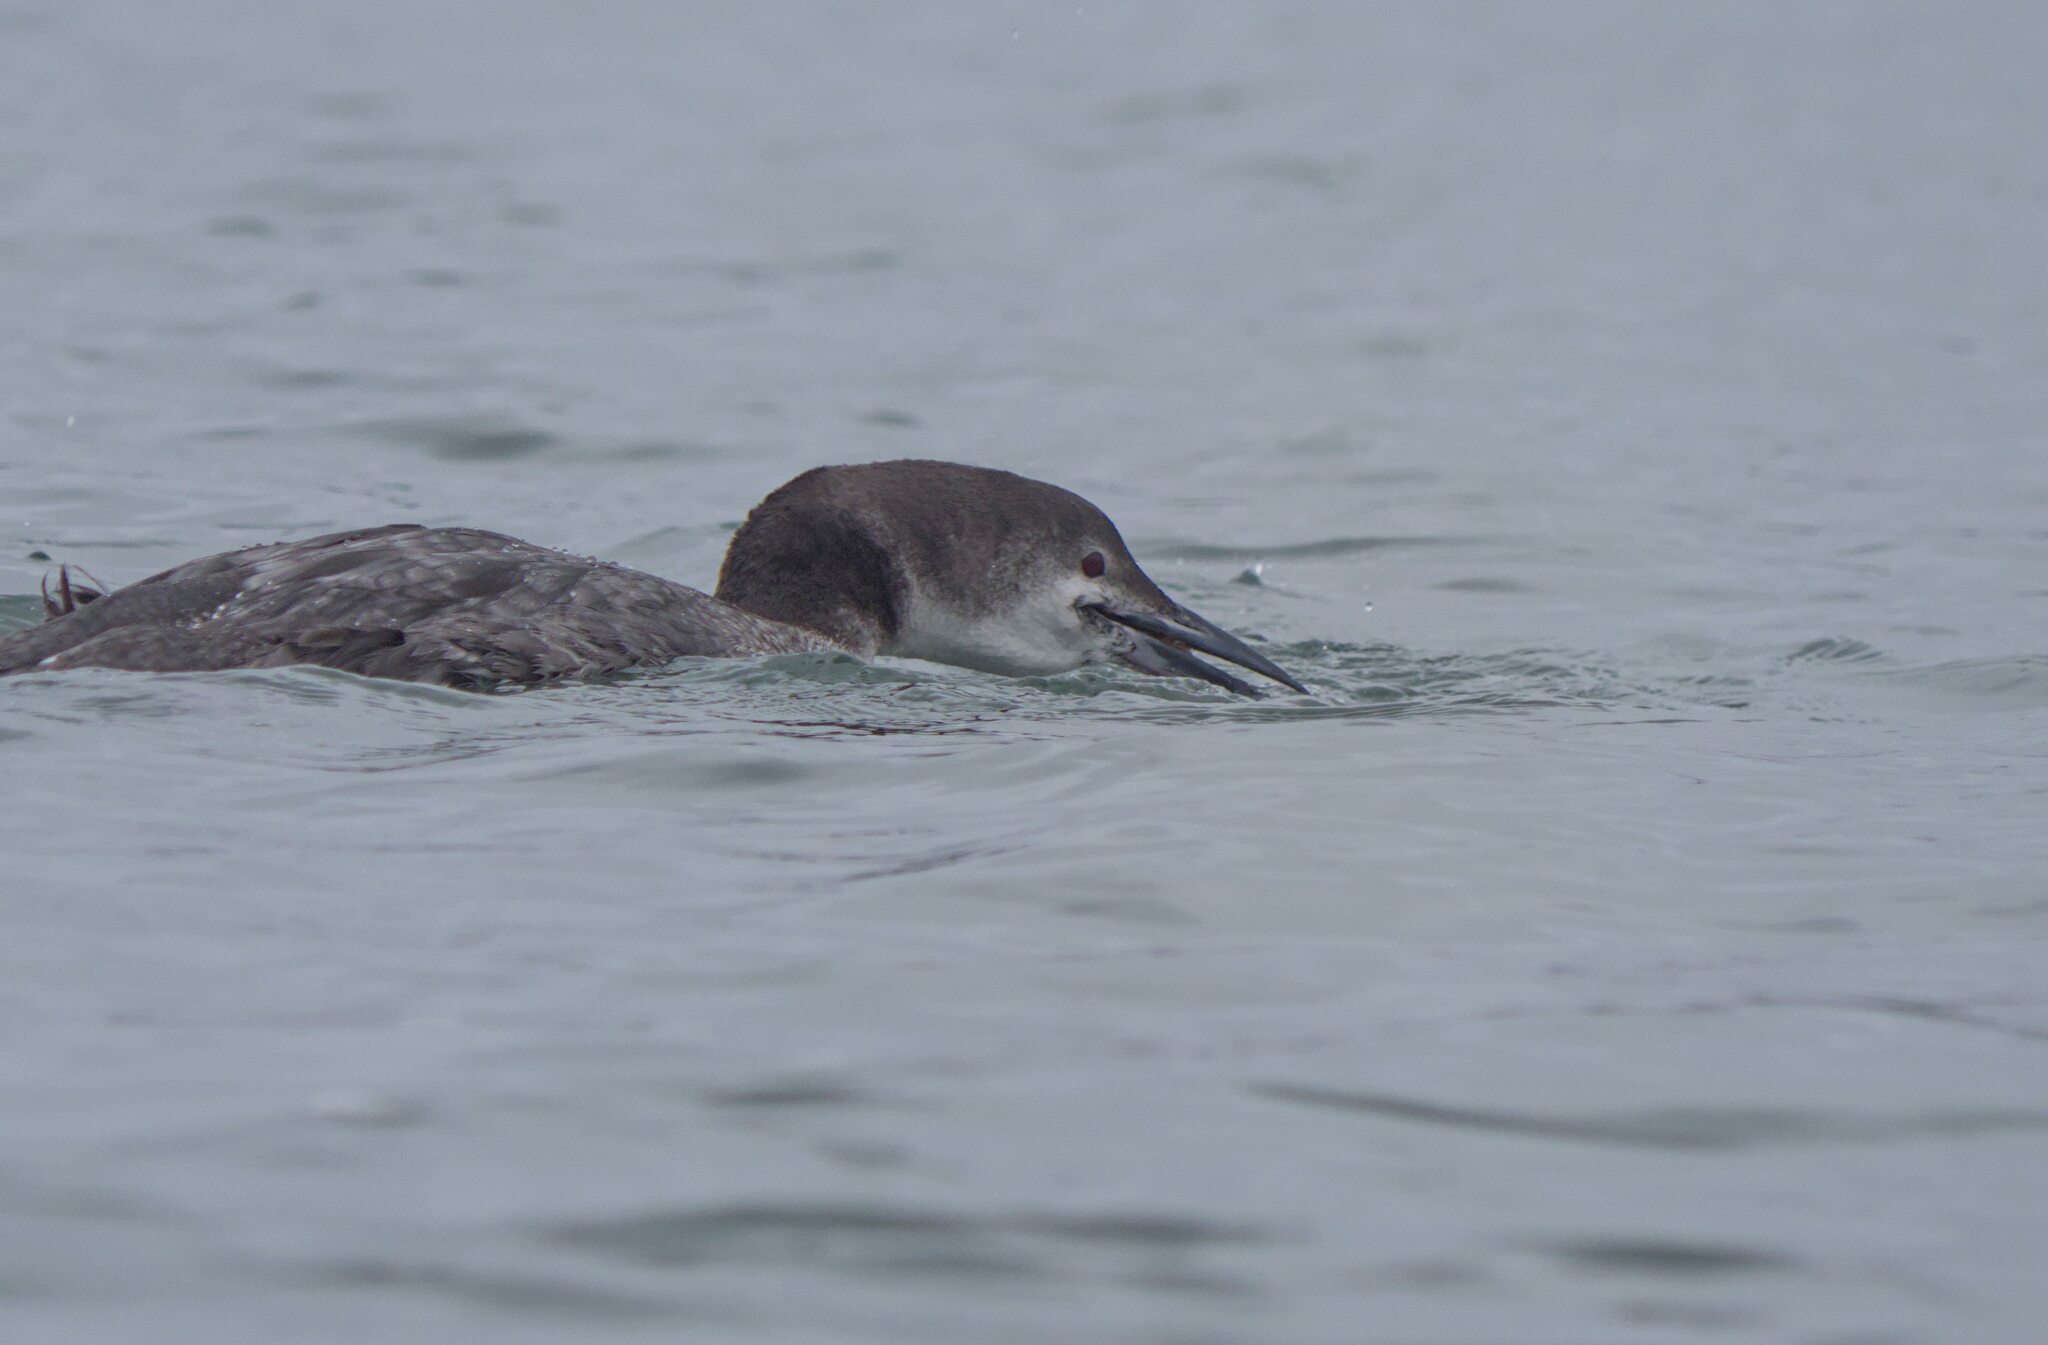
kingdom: Animalia
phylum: Chordata
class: Aves
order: Gaviiformes
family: Gaviidae
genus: Gavia
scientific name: Gavia immer
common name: Common loon
